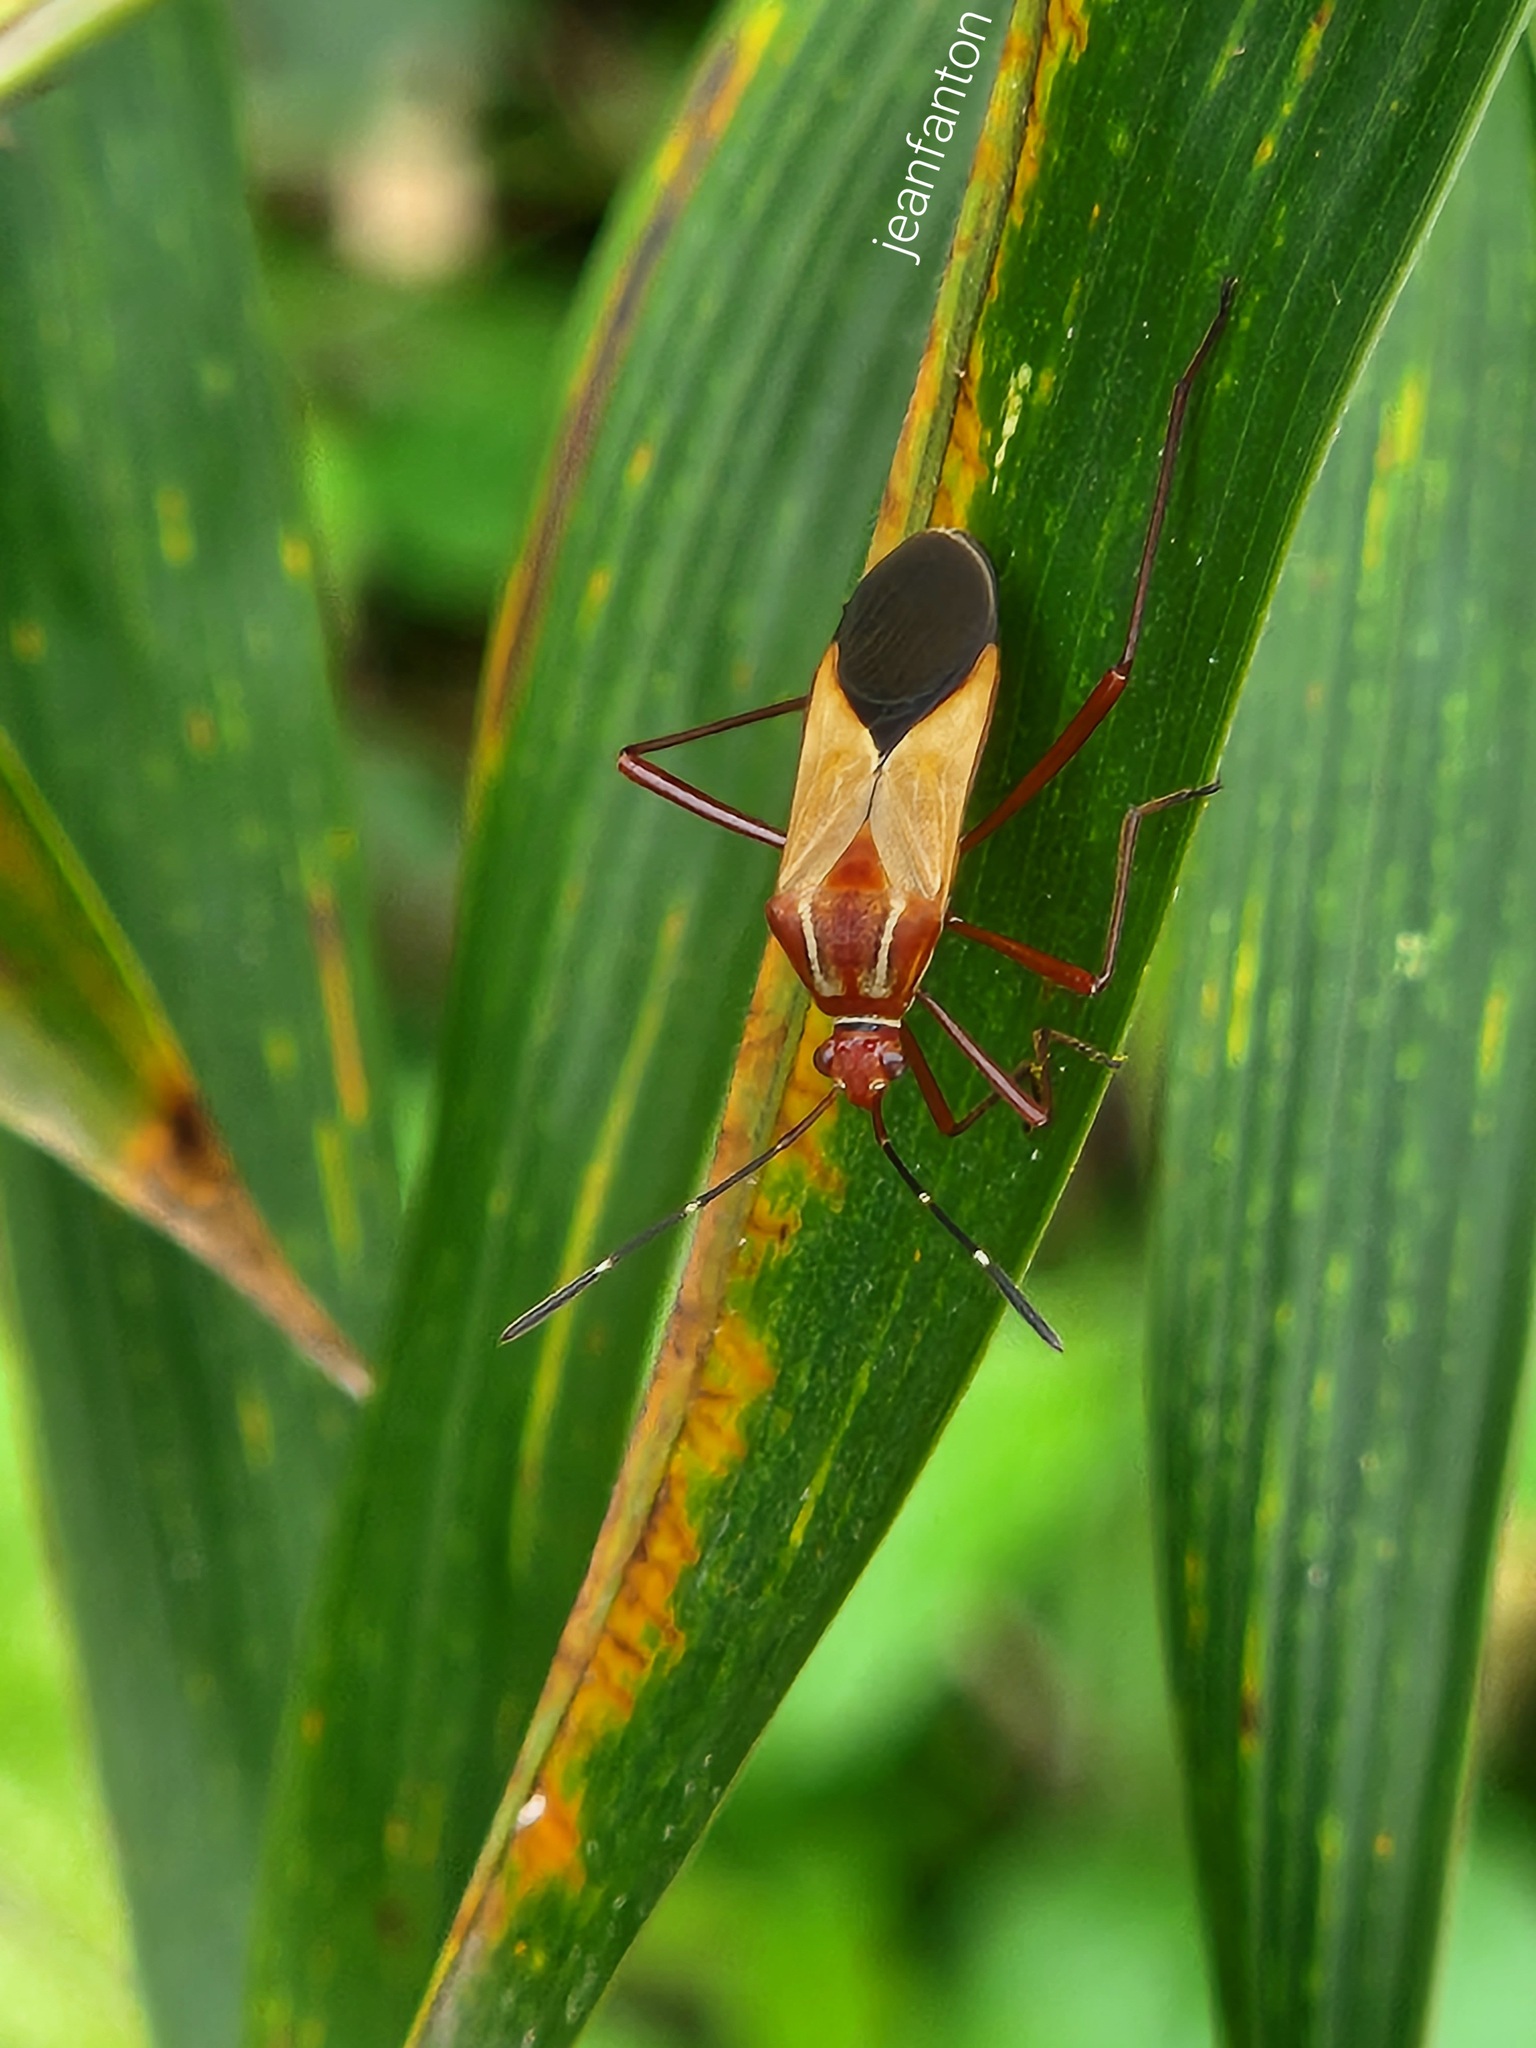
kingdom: Animalia
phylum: Arthropoda
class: Insecta
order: Hemiptera
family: Coreidae
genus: Hypselonotus
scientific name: Hypselonotus interruptus
